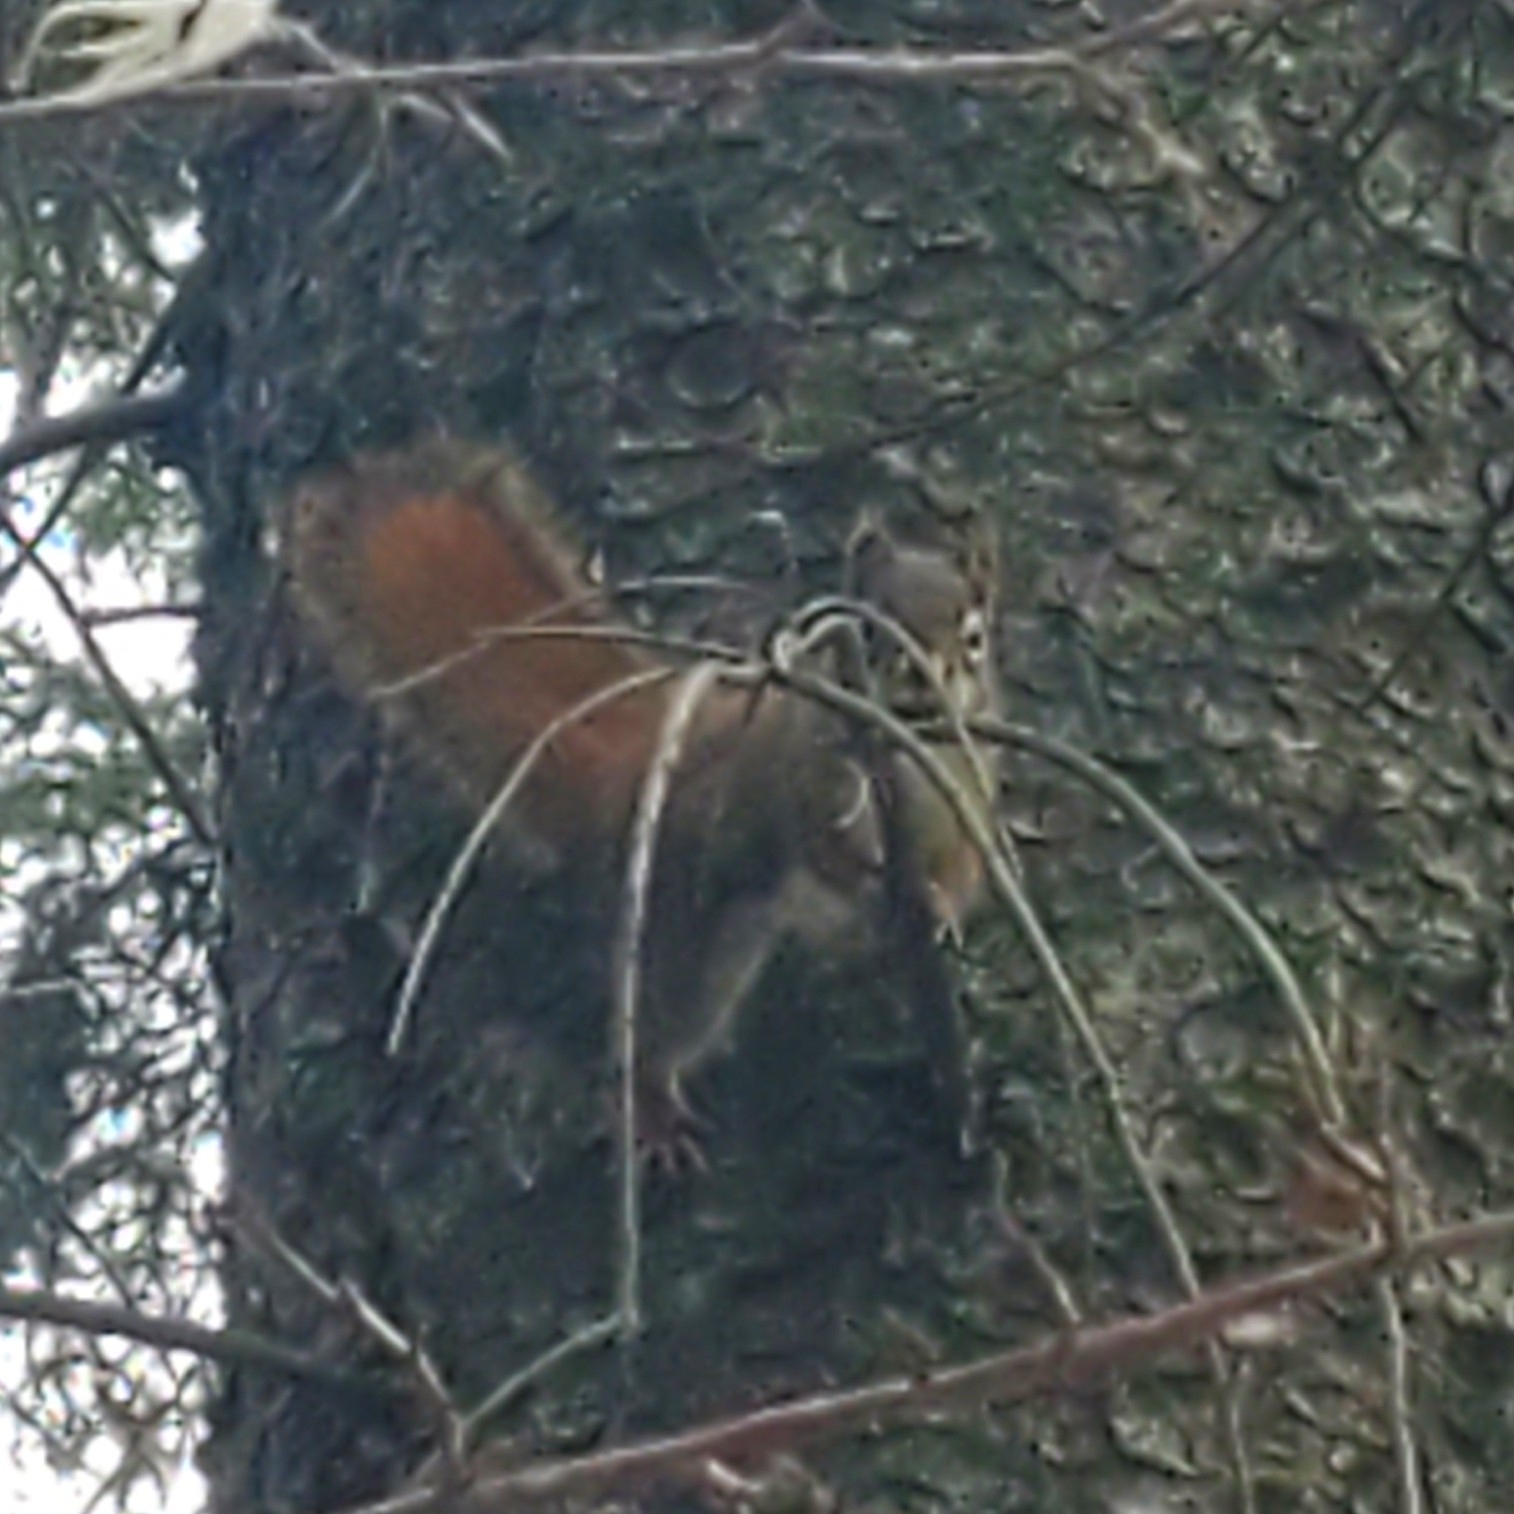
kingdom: Animalia
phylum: Chordata
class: Mammalia
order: Rodentia
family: Sciuridae
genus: Tamiasciurus
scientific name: Tamiasciurus hudsonicus
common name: Red squirrel
